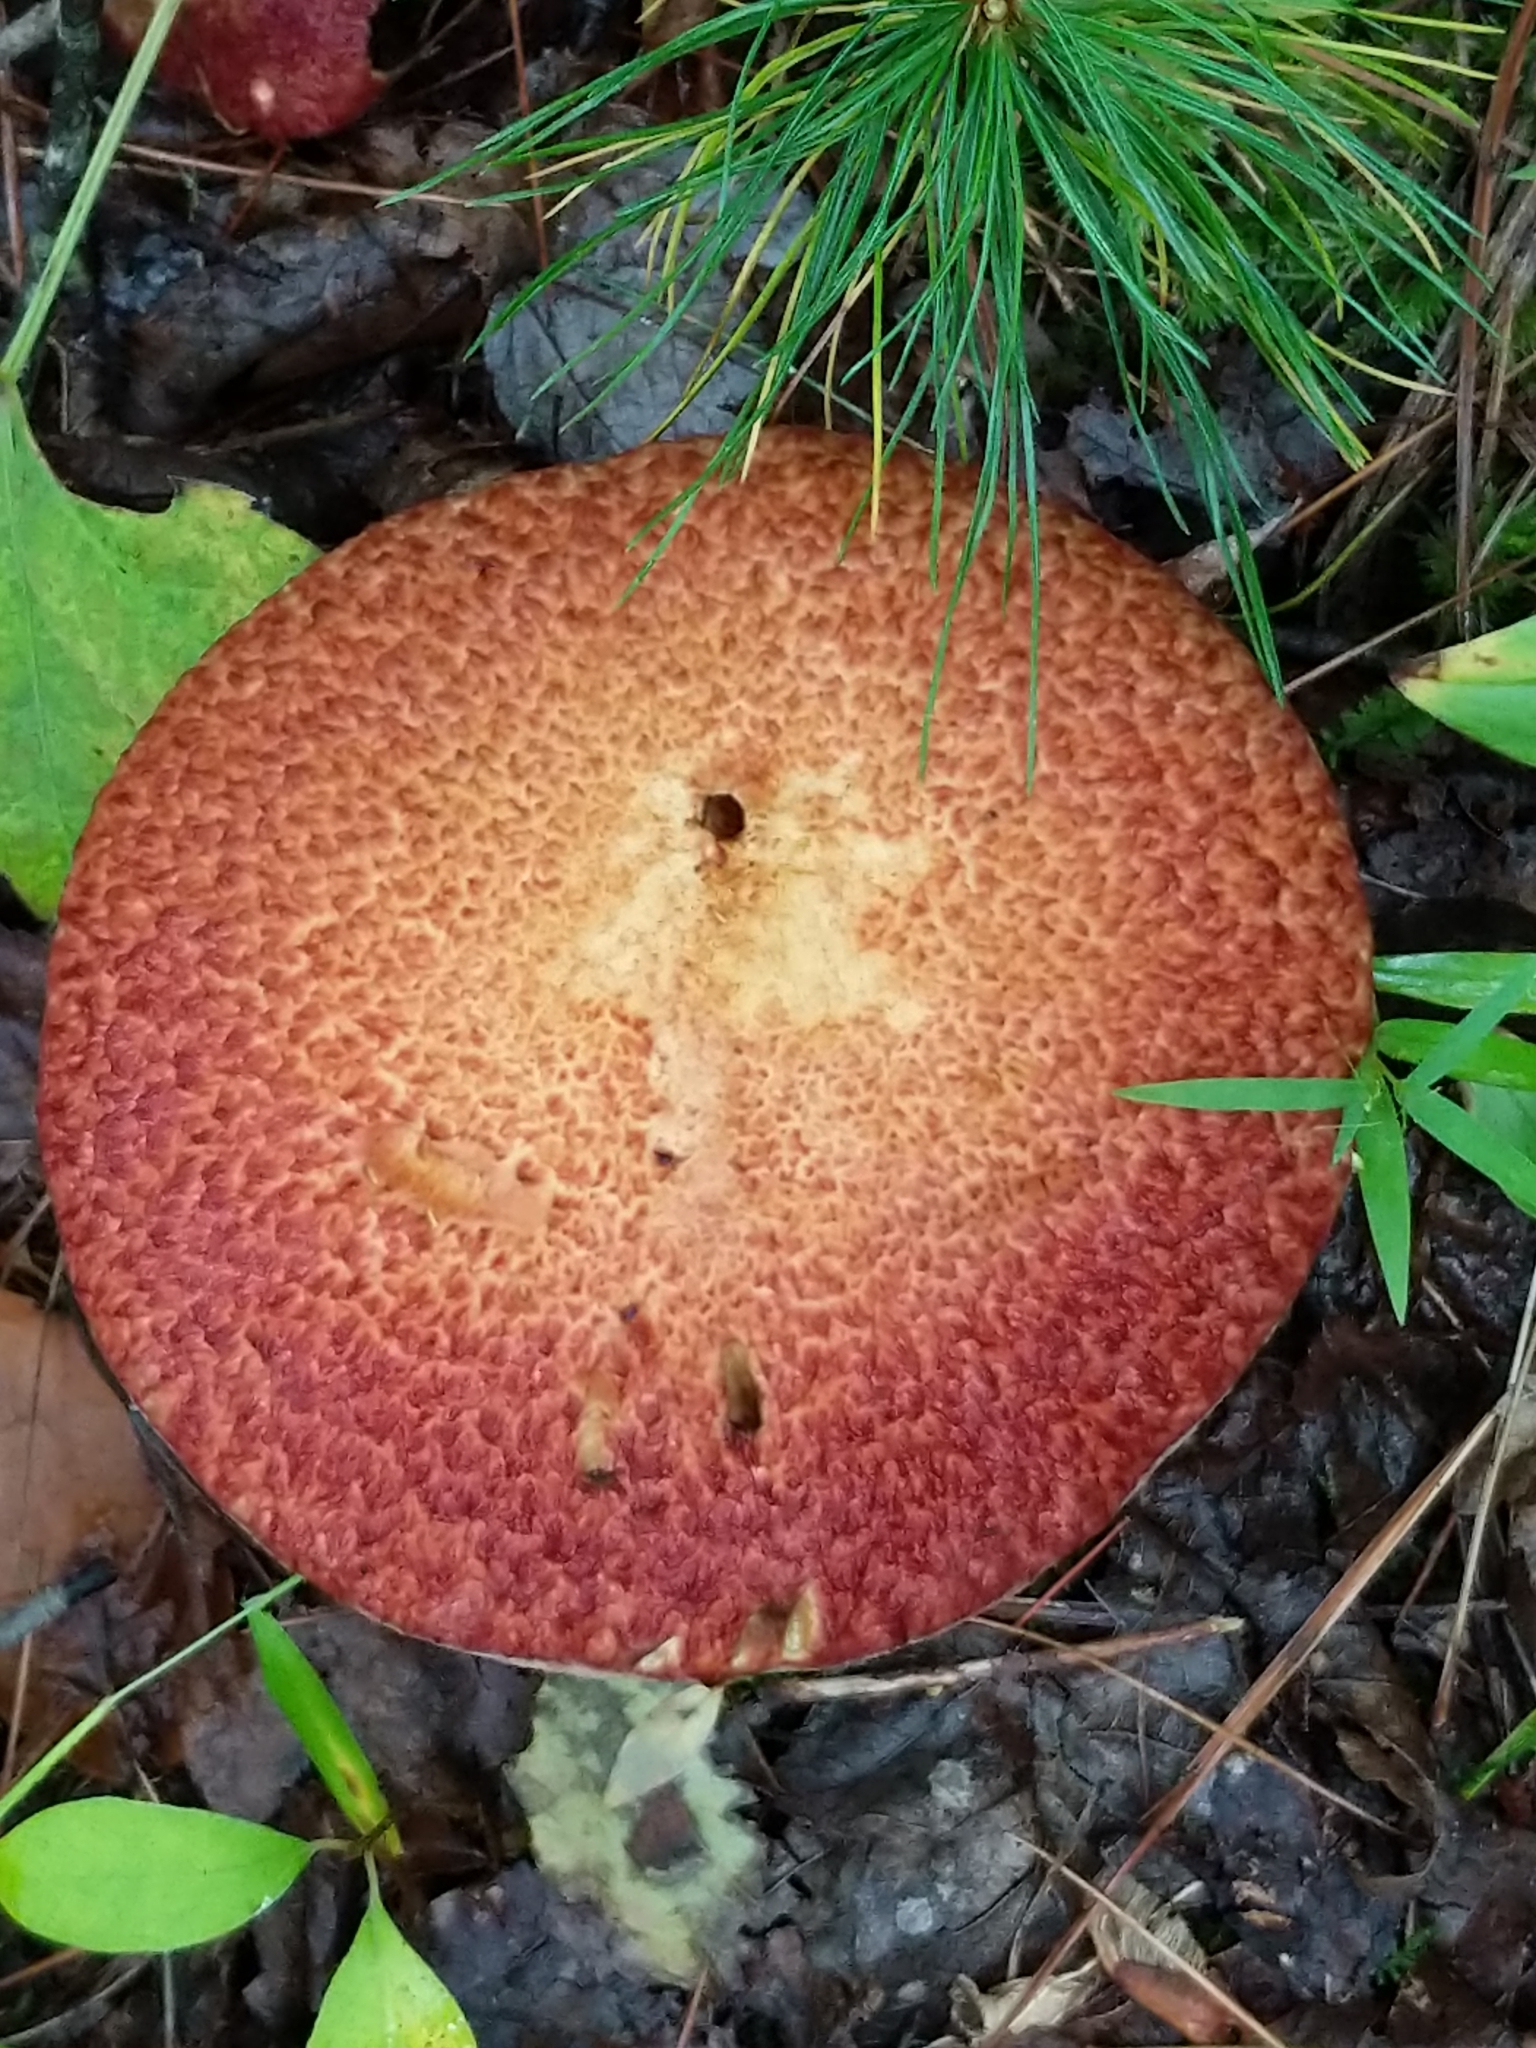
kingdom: Fungi
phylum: Basidiomycota
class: Agaricomycetes
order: Boletales
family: Suillaceae
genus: Suillus
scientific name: Suillus spraguei
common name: Painted suillus
